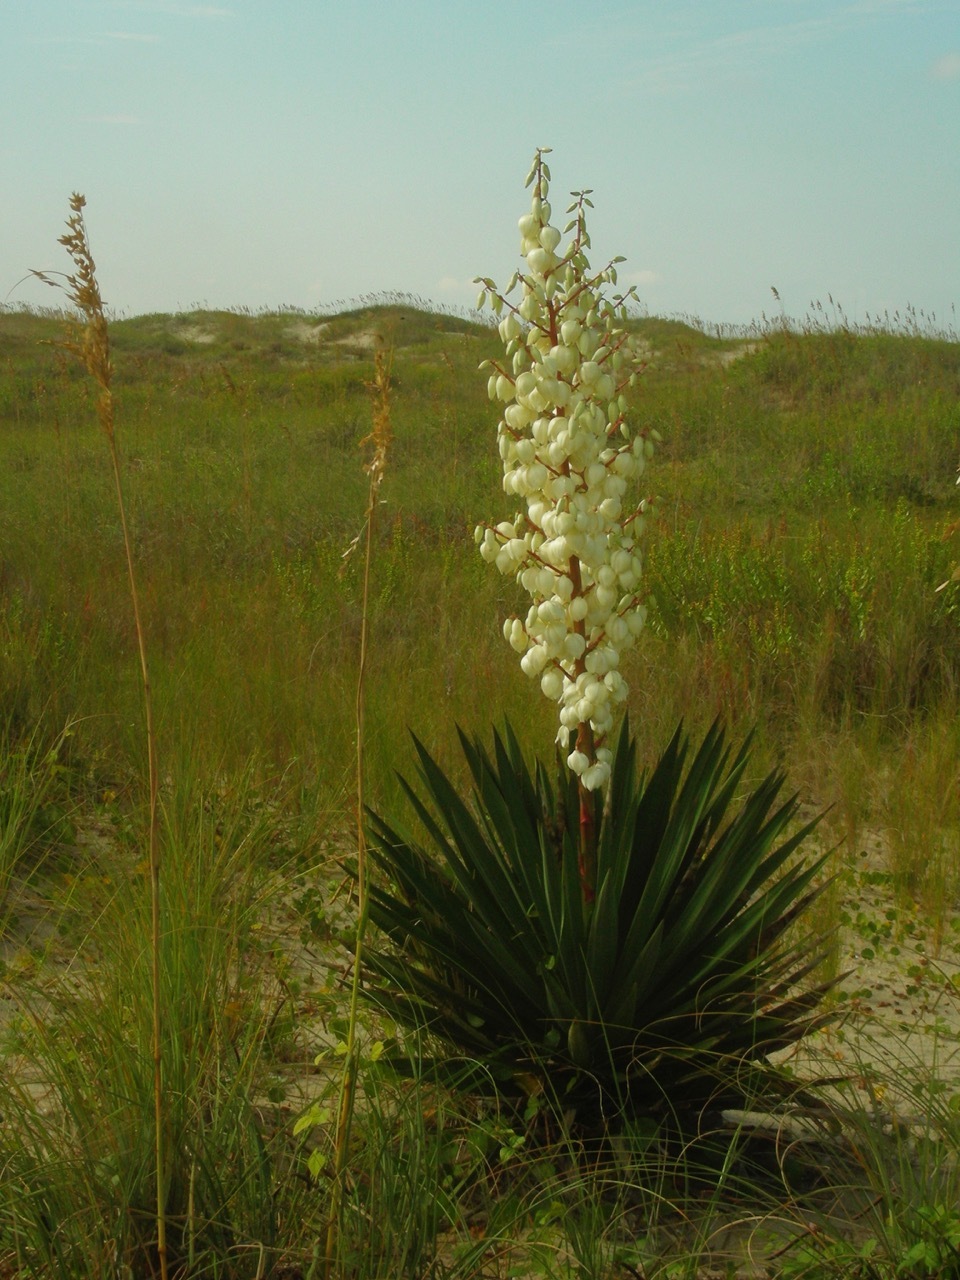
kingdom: Plantae
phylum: Tracheophyta
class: Liliopsida
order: Asparagales
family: Asparagaceae
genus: Yucca
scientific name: Yucca gloriosa
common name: Spanish-dagger
